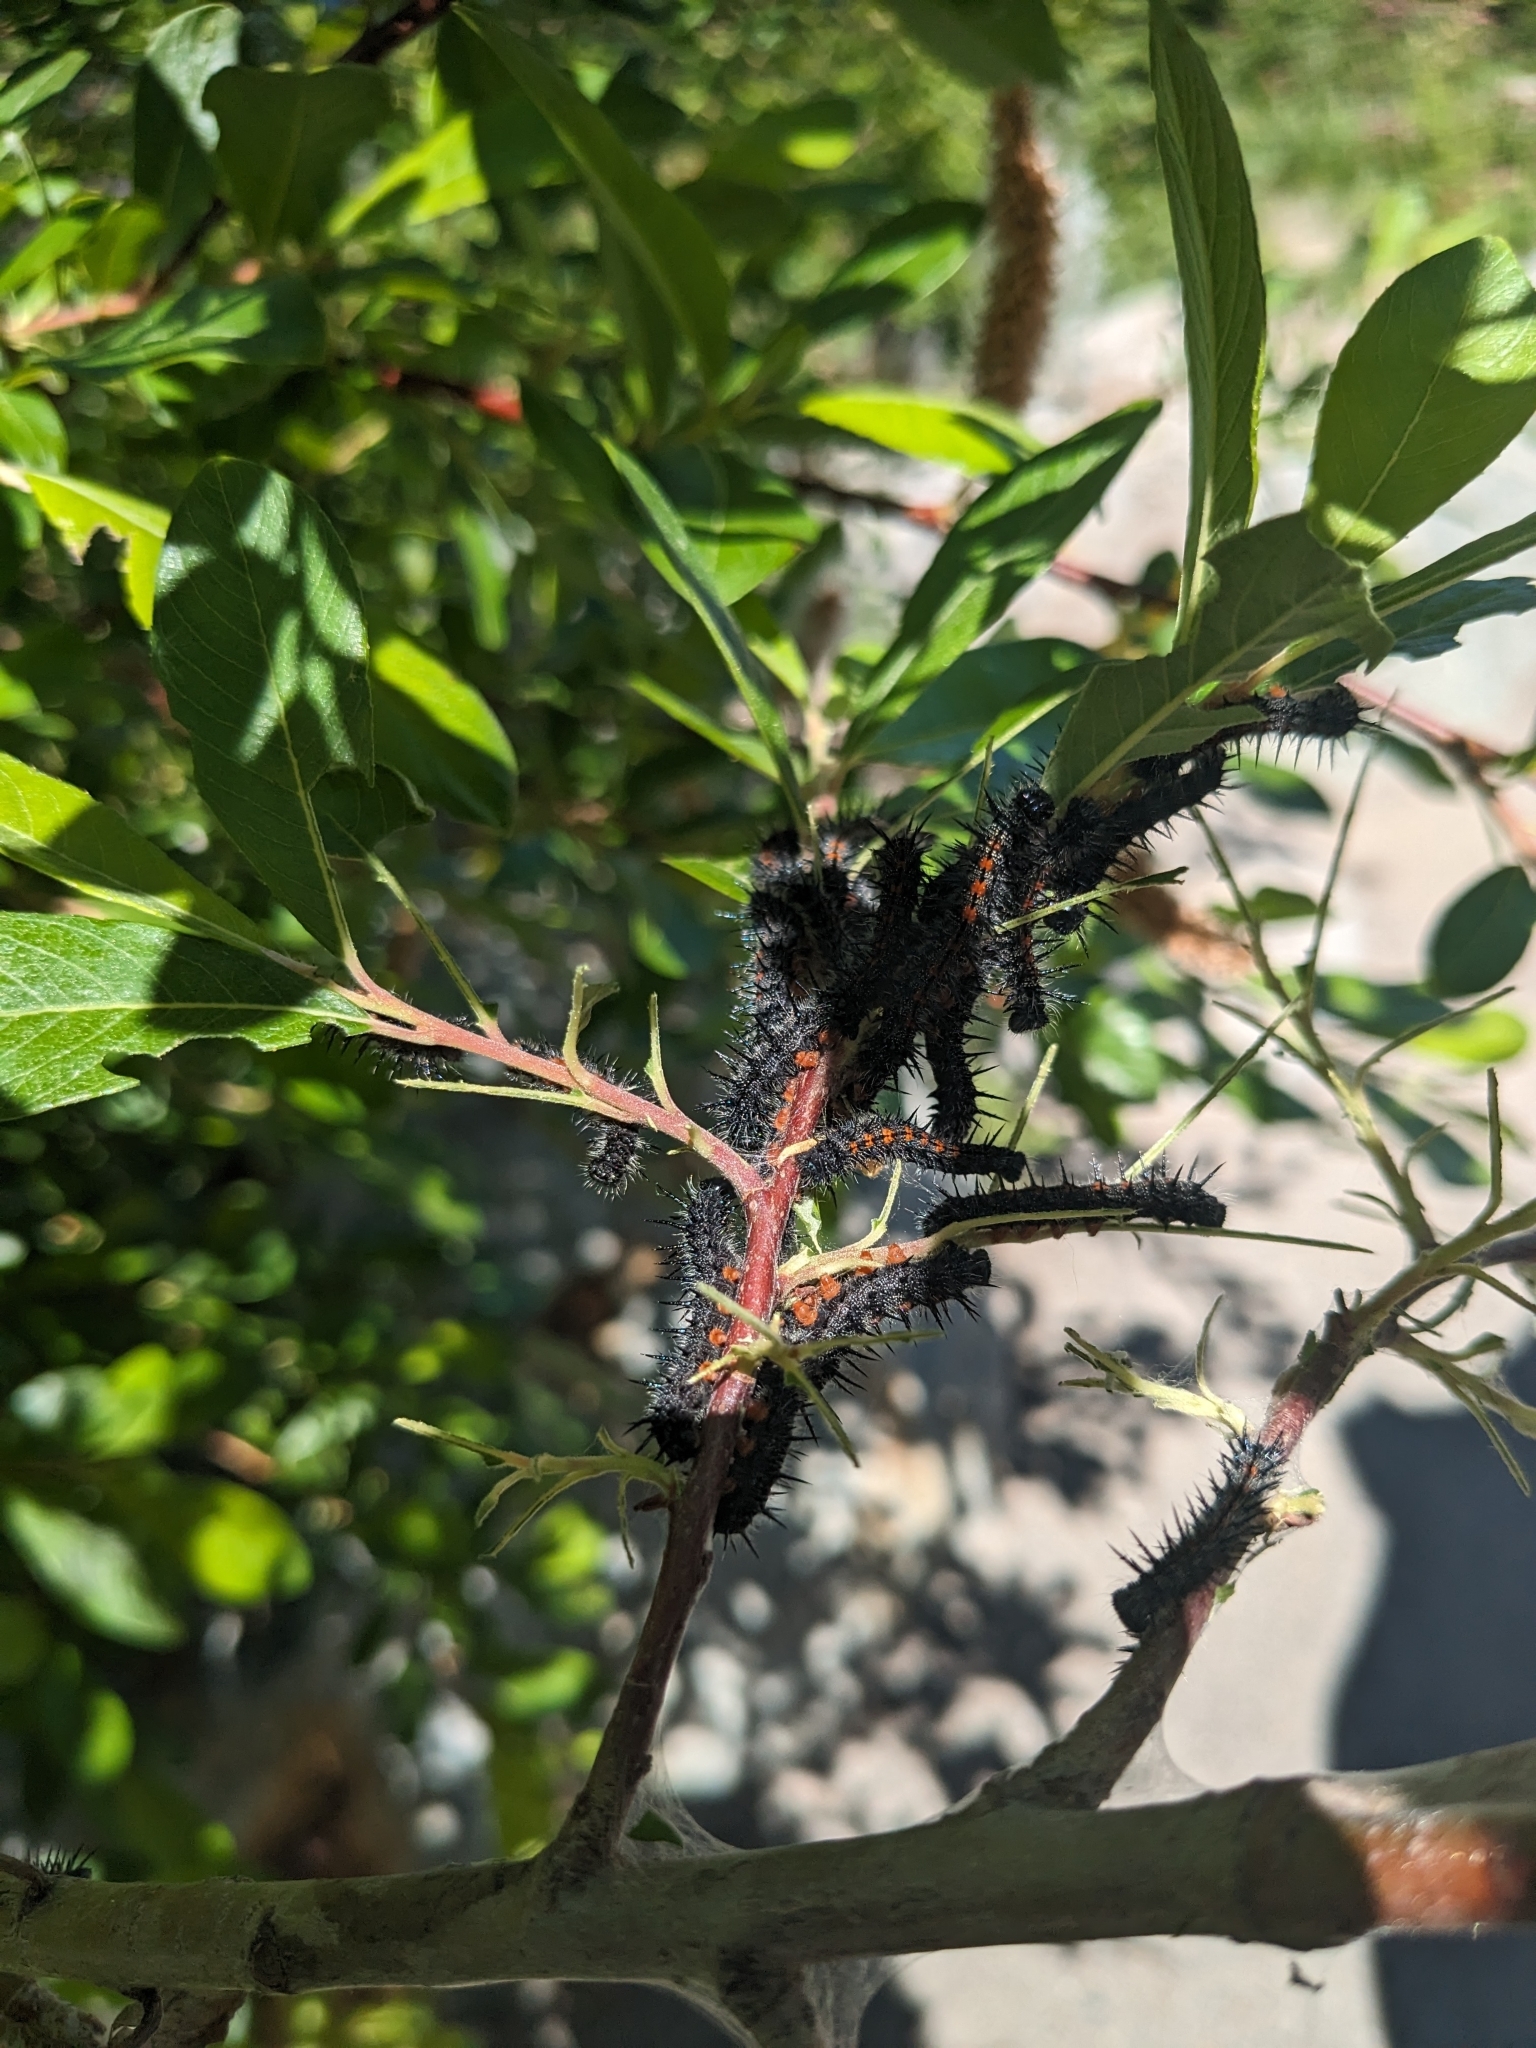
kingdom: Animalia
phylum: Arthropoda
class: Insecta
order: Lepidoptera
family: Nymphalidae
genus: Nymphalis
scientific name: Nymphalis antiopa
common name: Camberwell beauty
